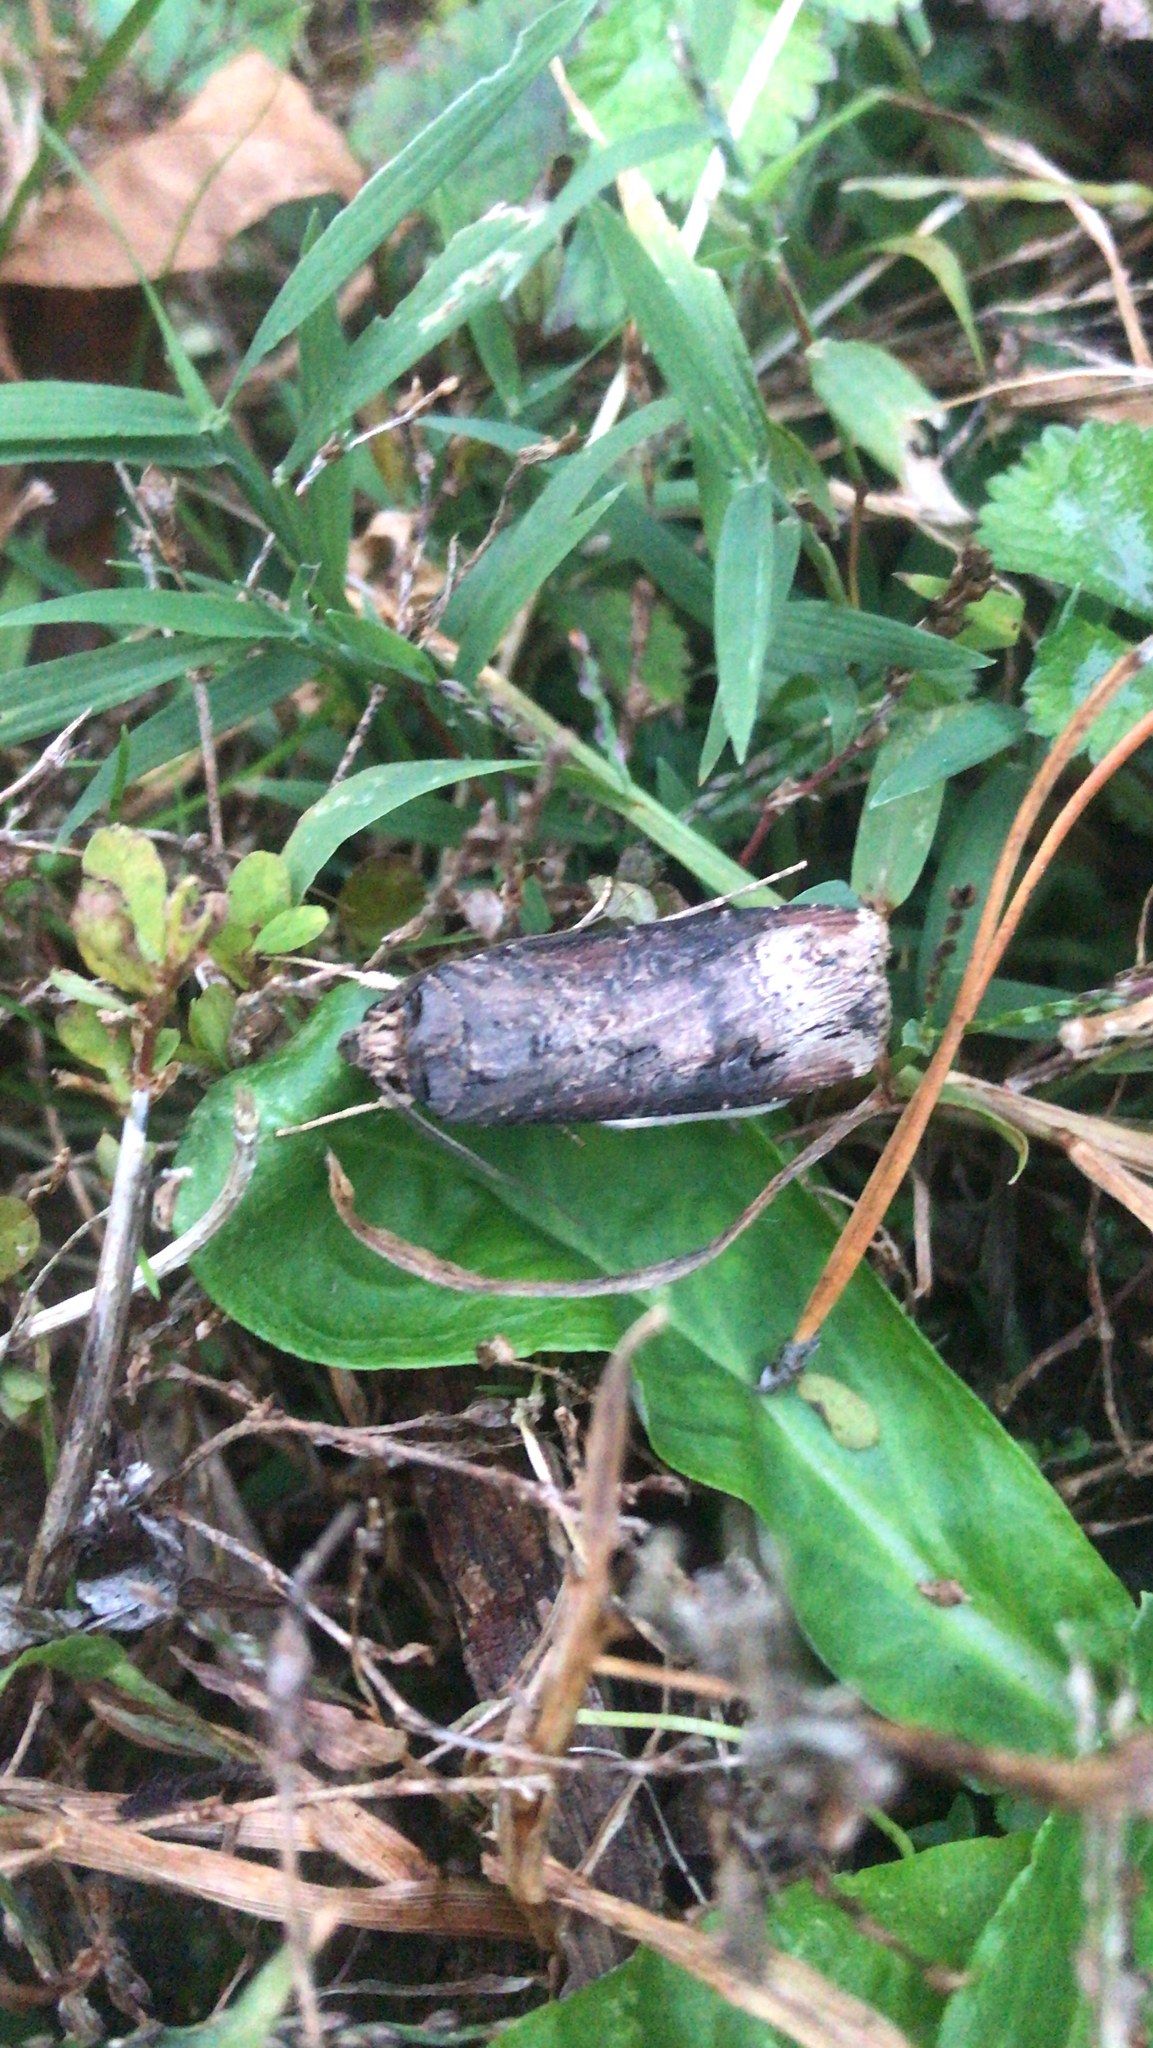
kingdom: Animalia
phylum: Arthropoda
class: Insecta
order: Lepidoptera
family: Noctuidae
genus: Agrotis
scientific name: Agrotis ipsilon
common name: Dark sword-grass
